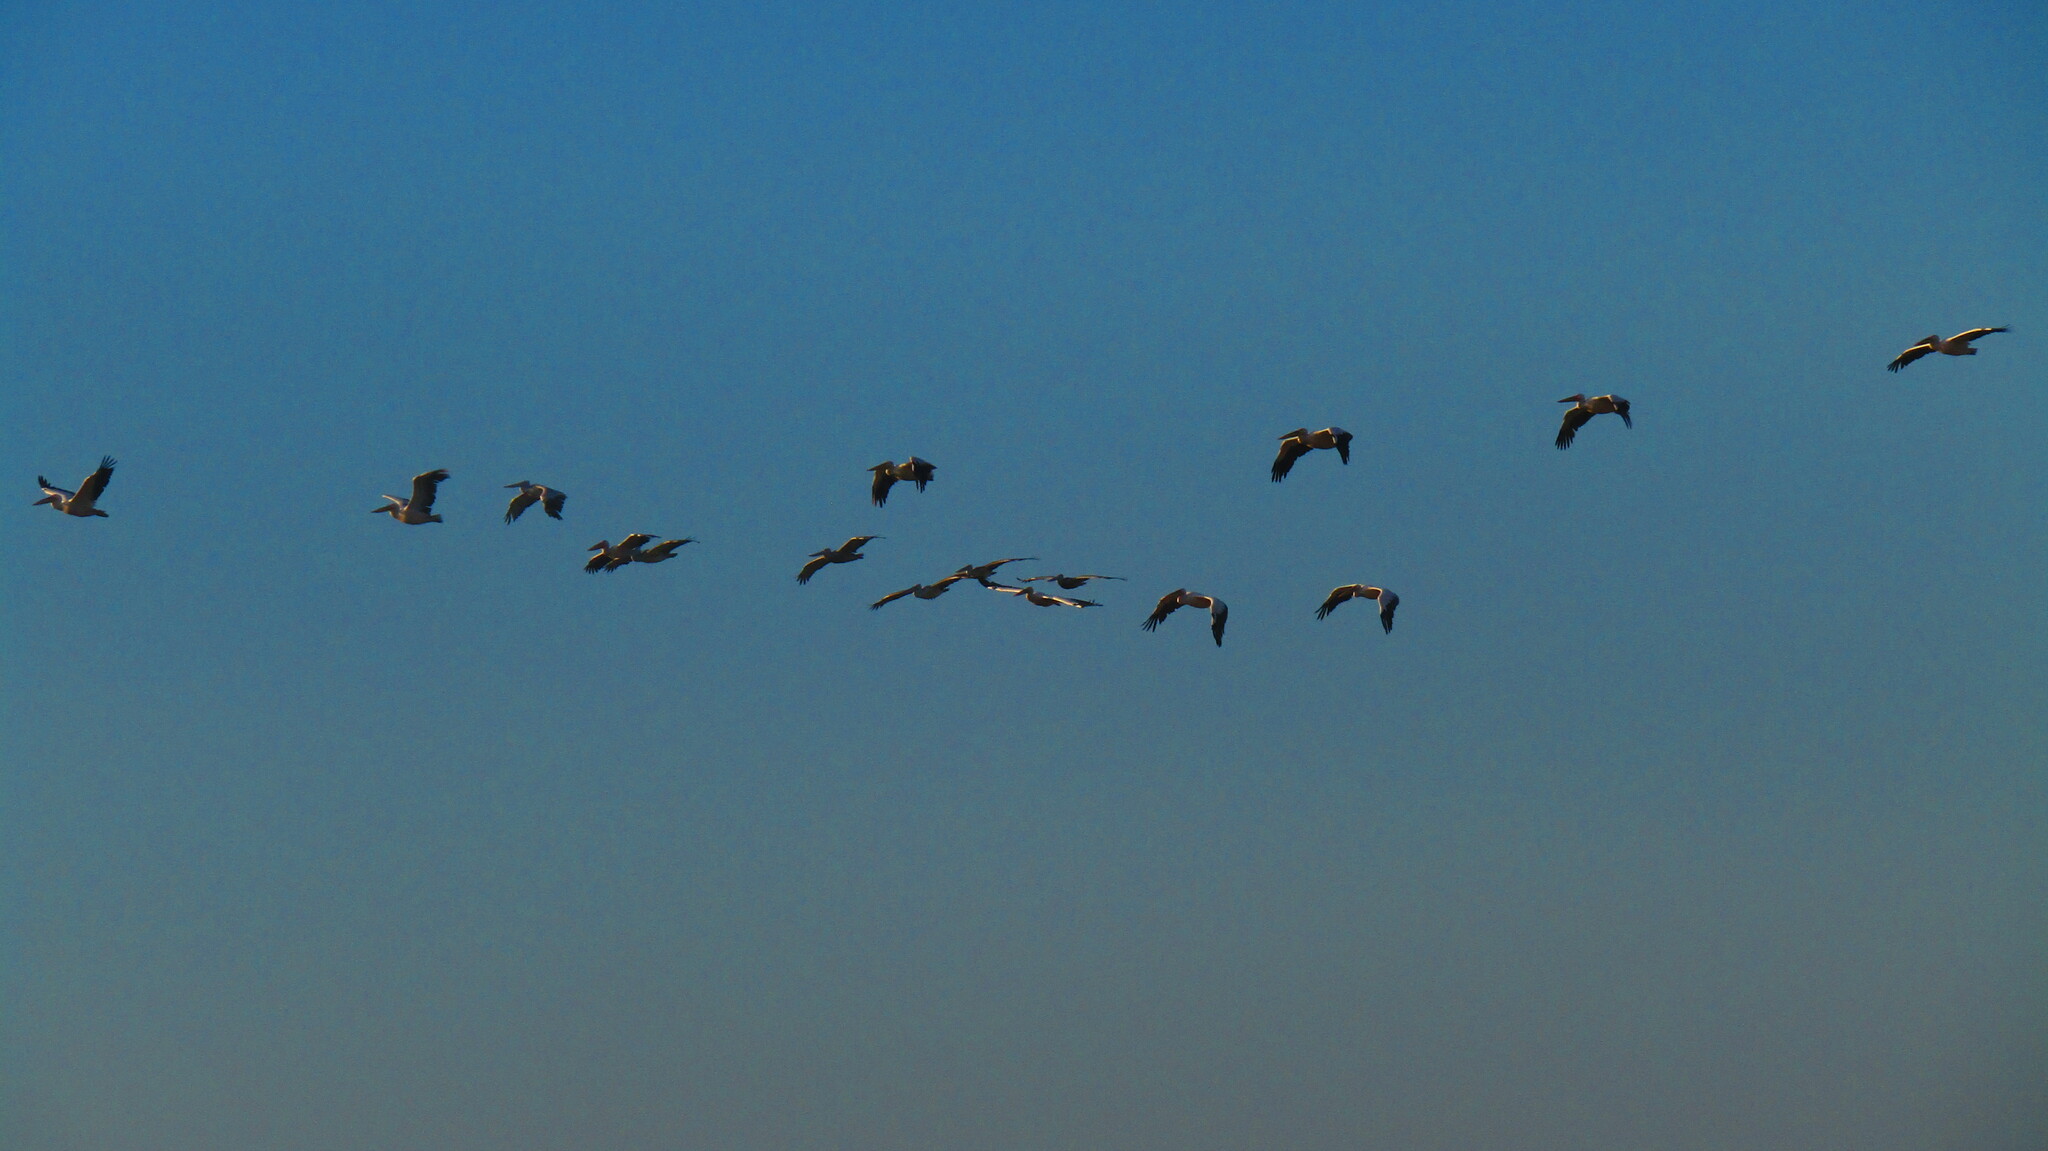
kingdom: Animalia
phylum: Chordata
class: Aves
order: Pelecaniformes
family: Pelecanidae
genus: Pelecanus
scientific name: Pelecanus onocrotalus
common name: Great white pelican
